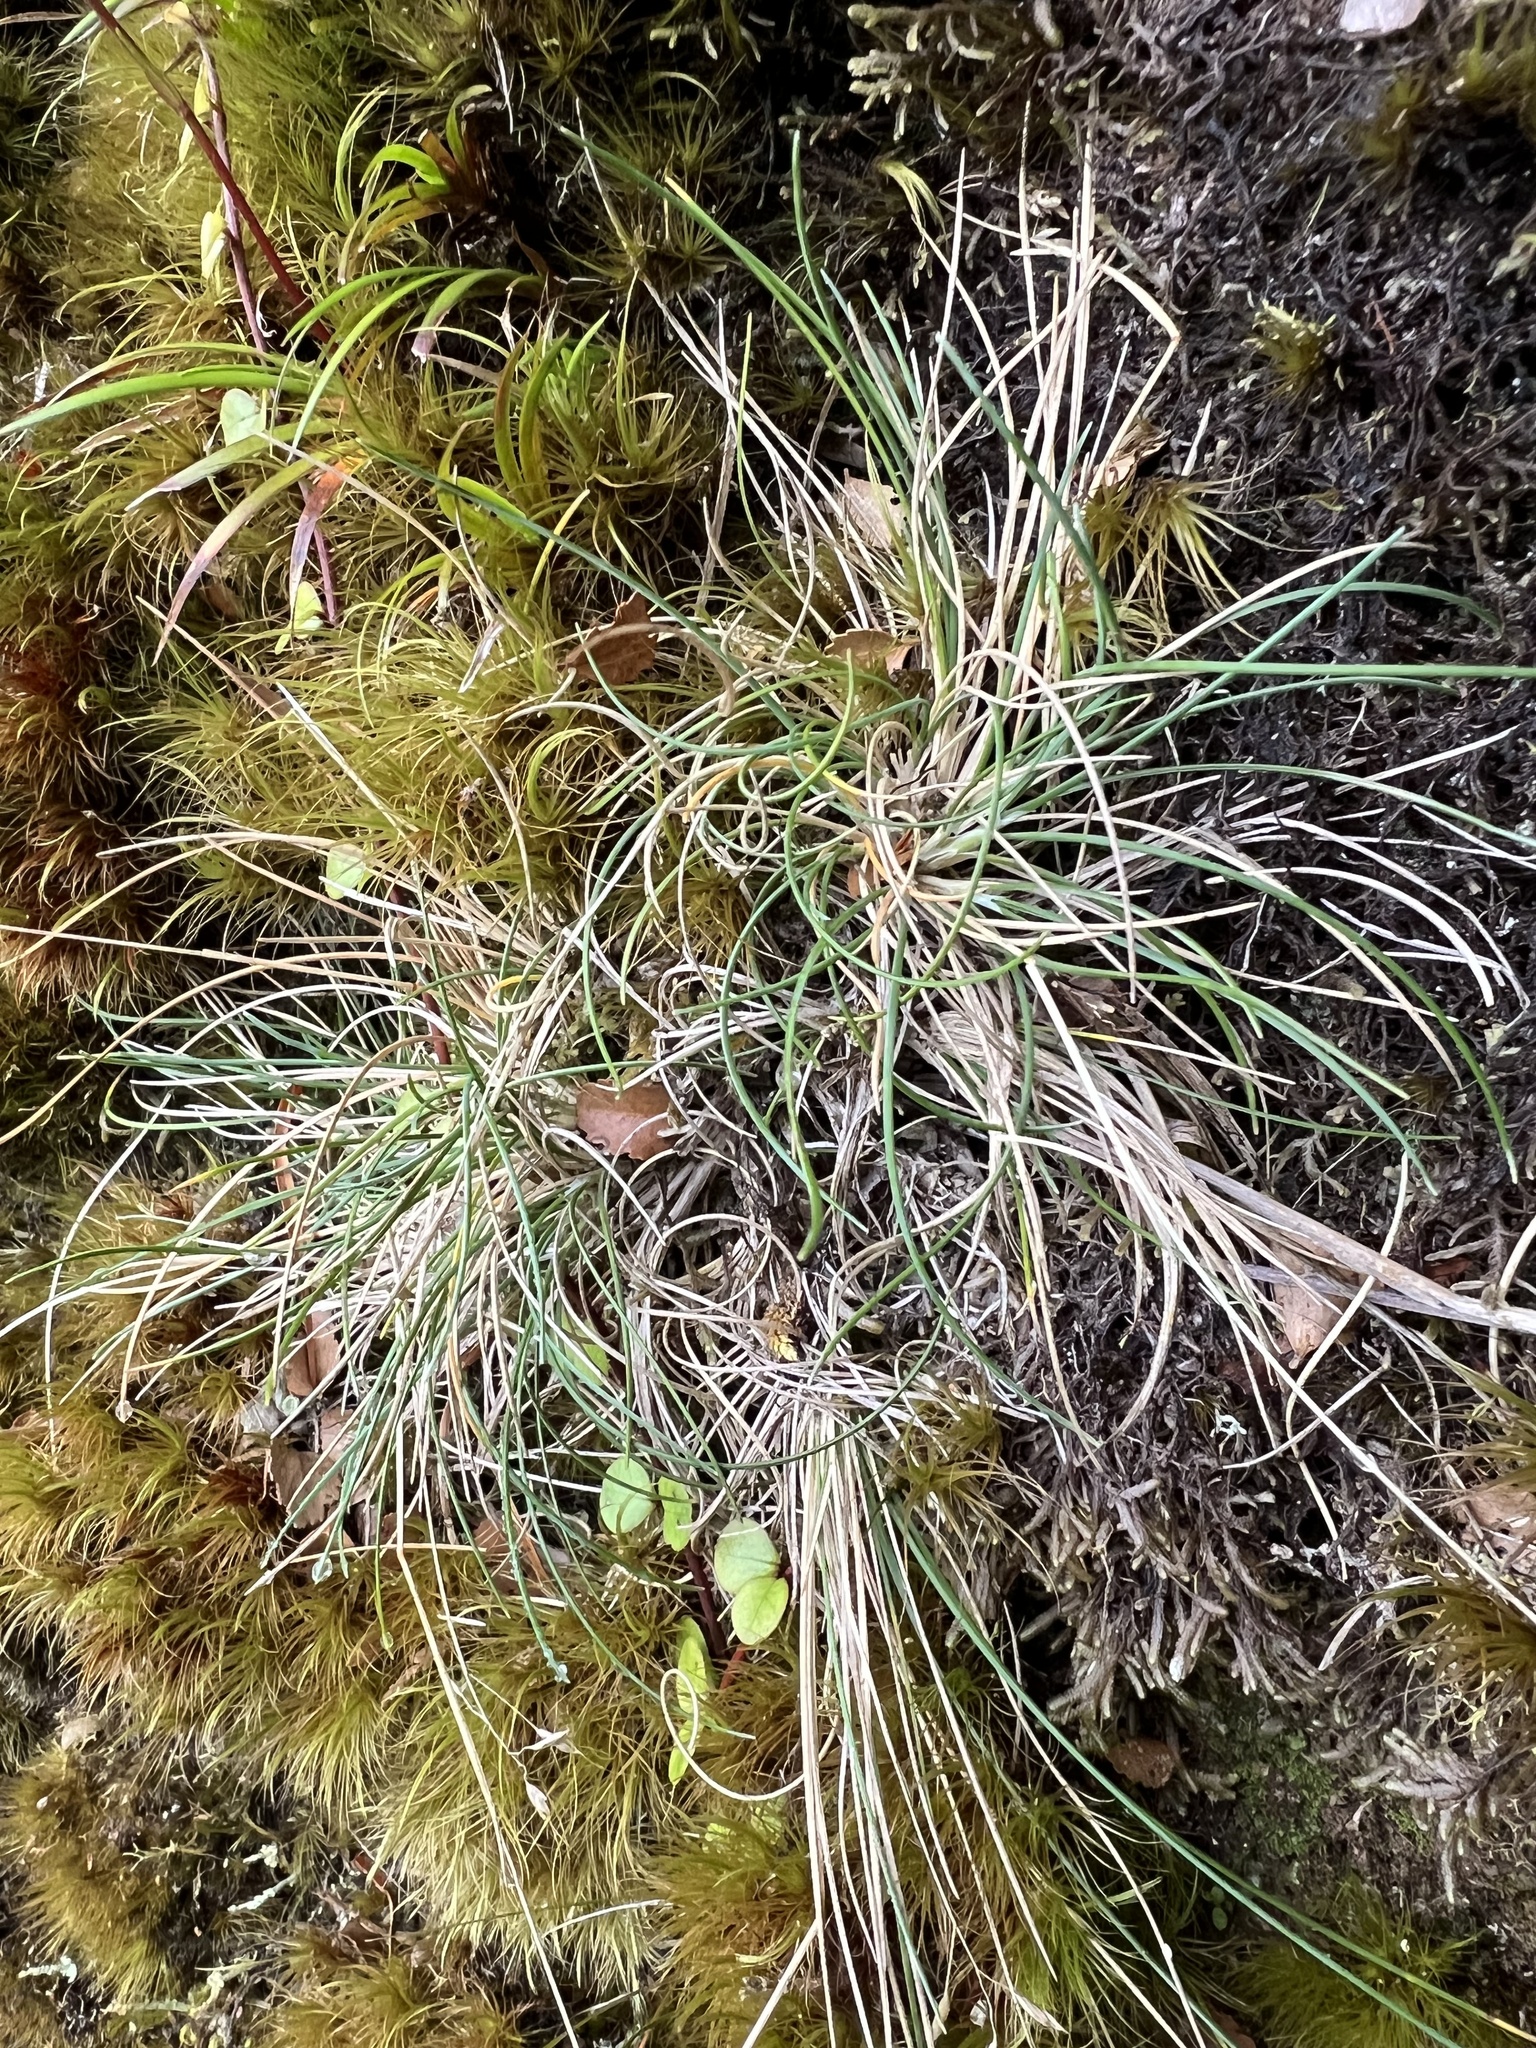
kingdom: Plantae
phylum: Tracheophyta
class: Liliopsida
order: Poales
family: Poaceae
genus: Poa
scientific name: Poa colensoi
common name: Blue tussock
